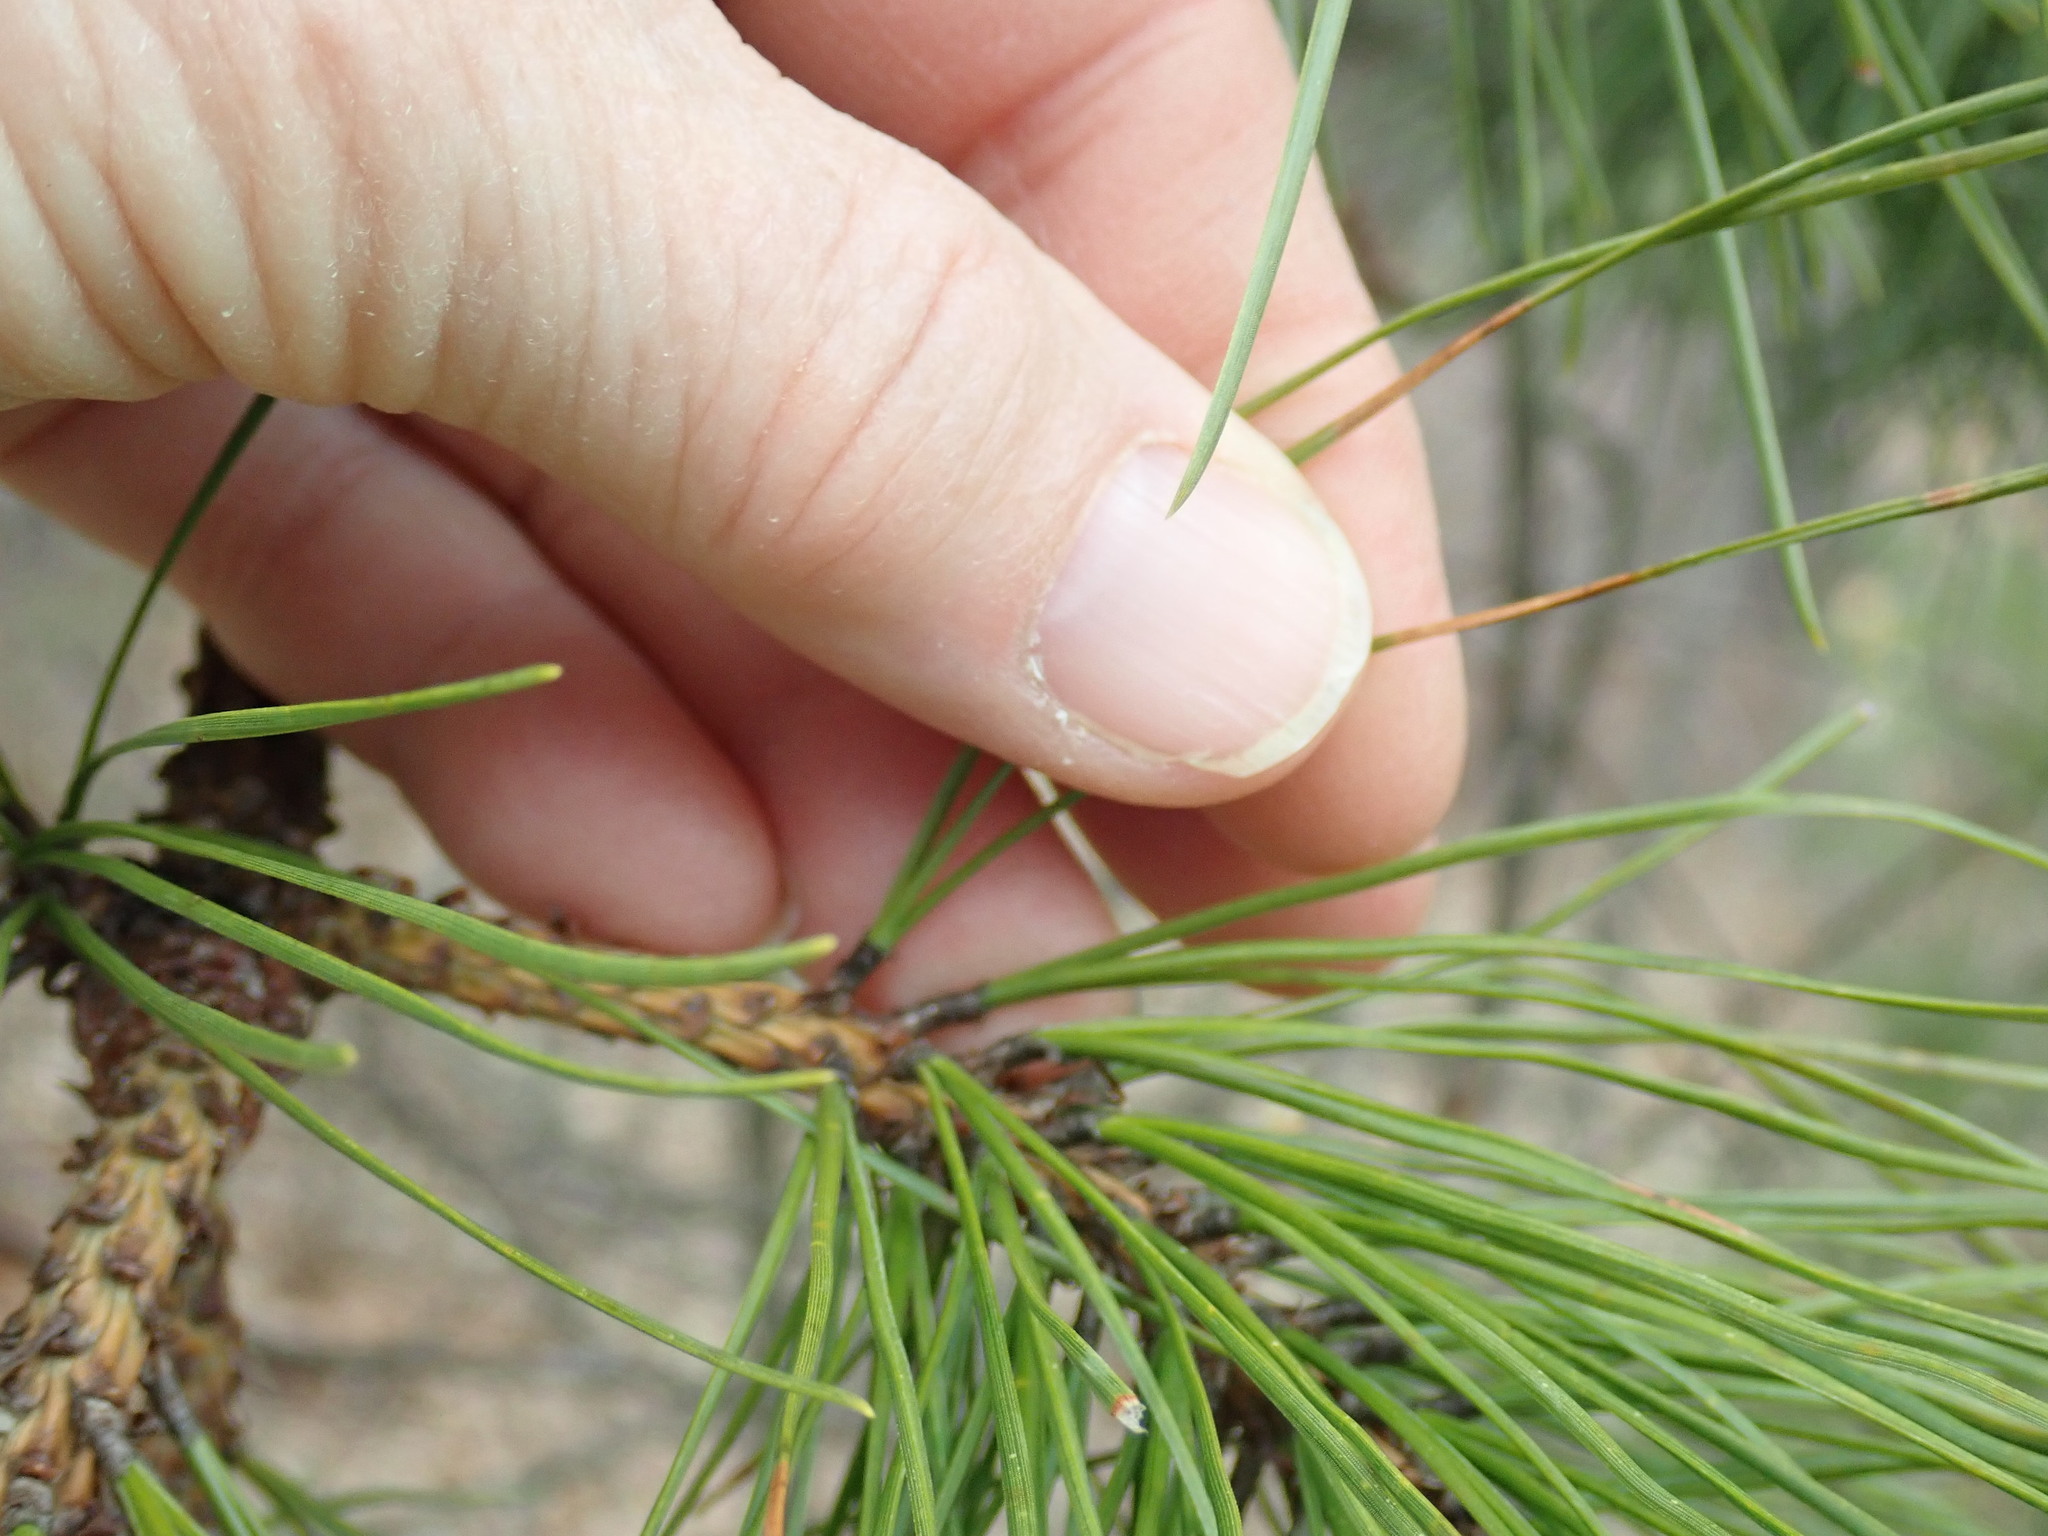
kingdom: Plantae
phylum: Tracheophyta
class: Pinopsida
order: Pinales
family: Pinaceae
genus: Pinus
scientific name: Pinus rigida
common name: Pitch pine
